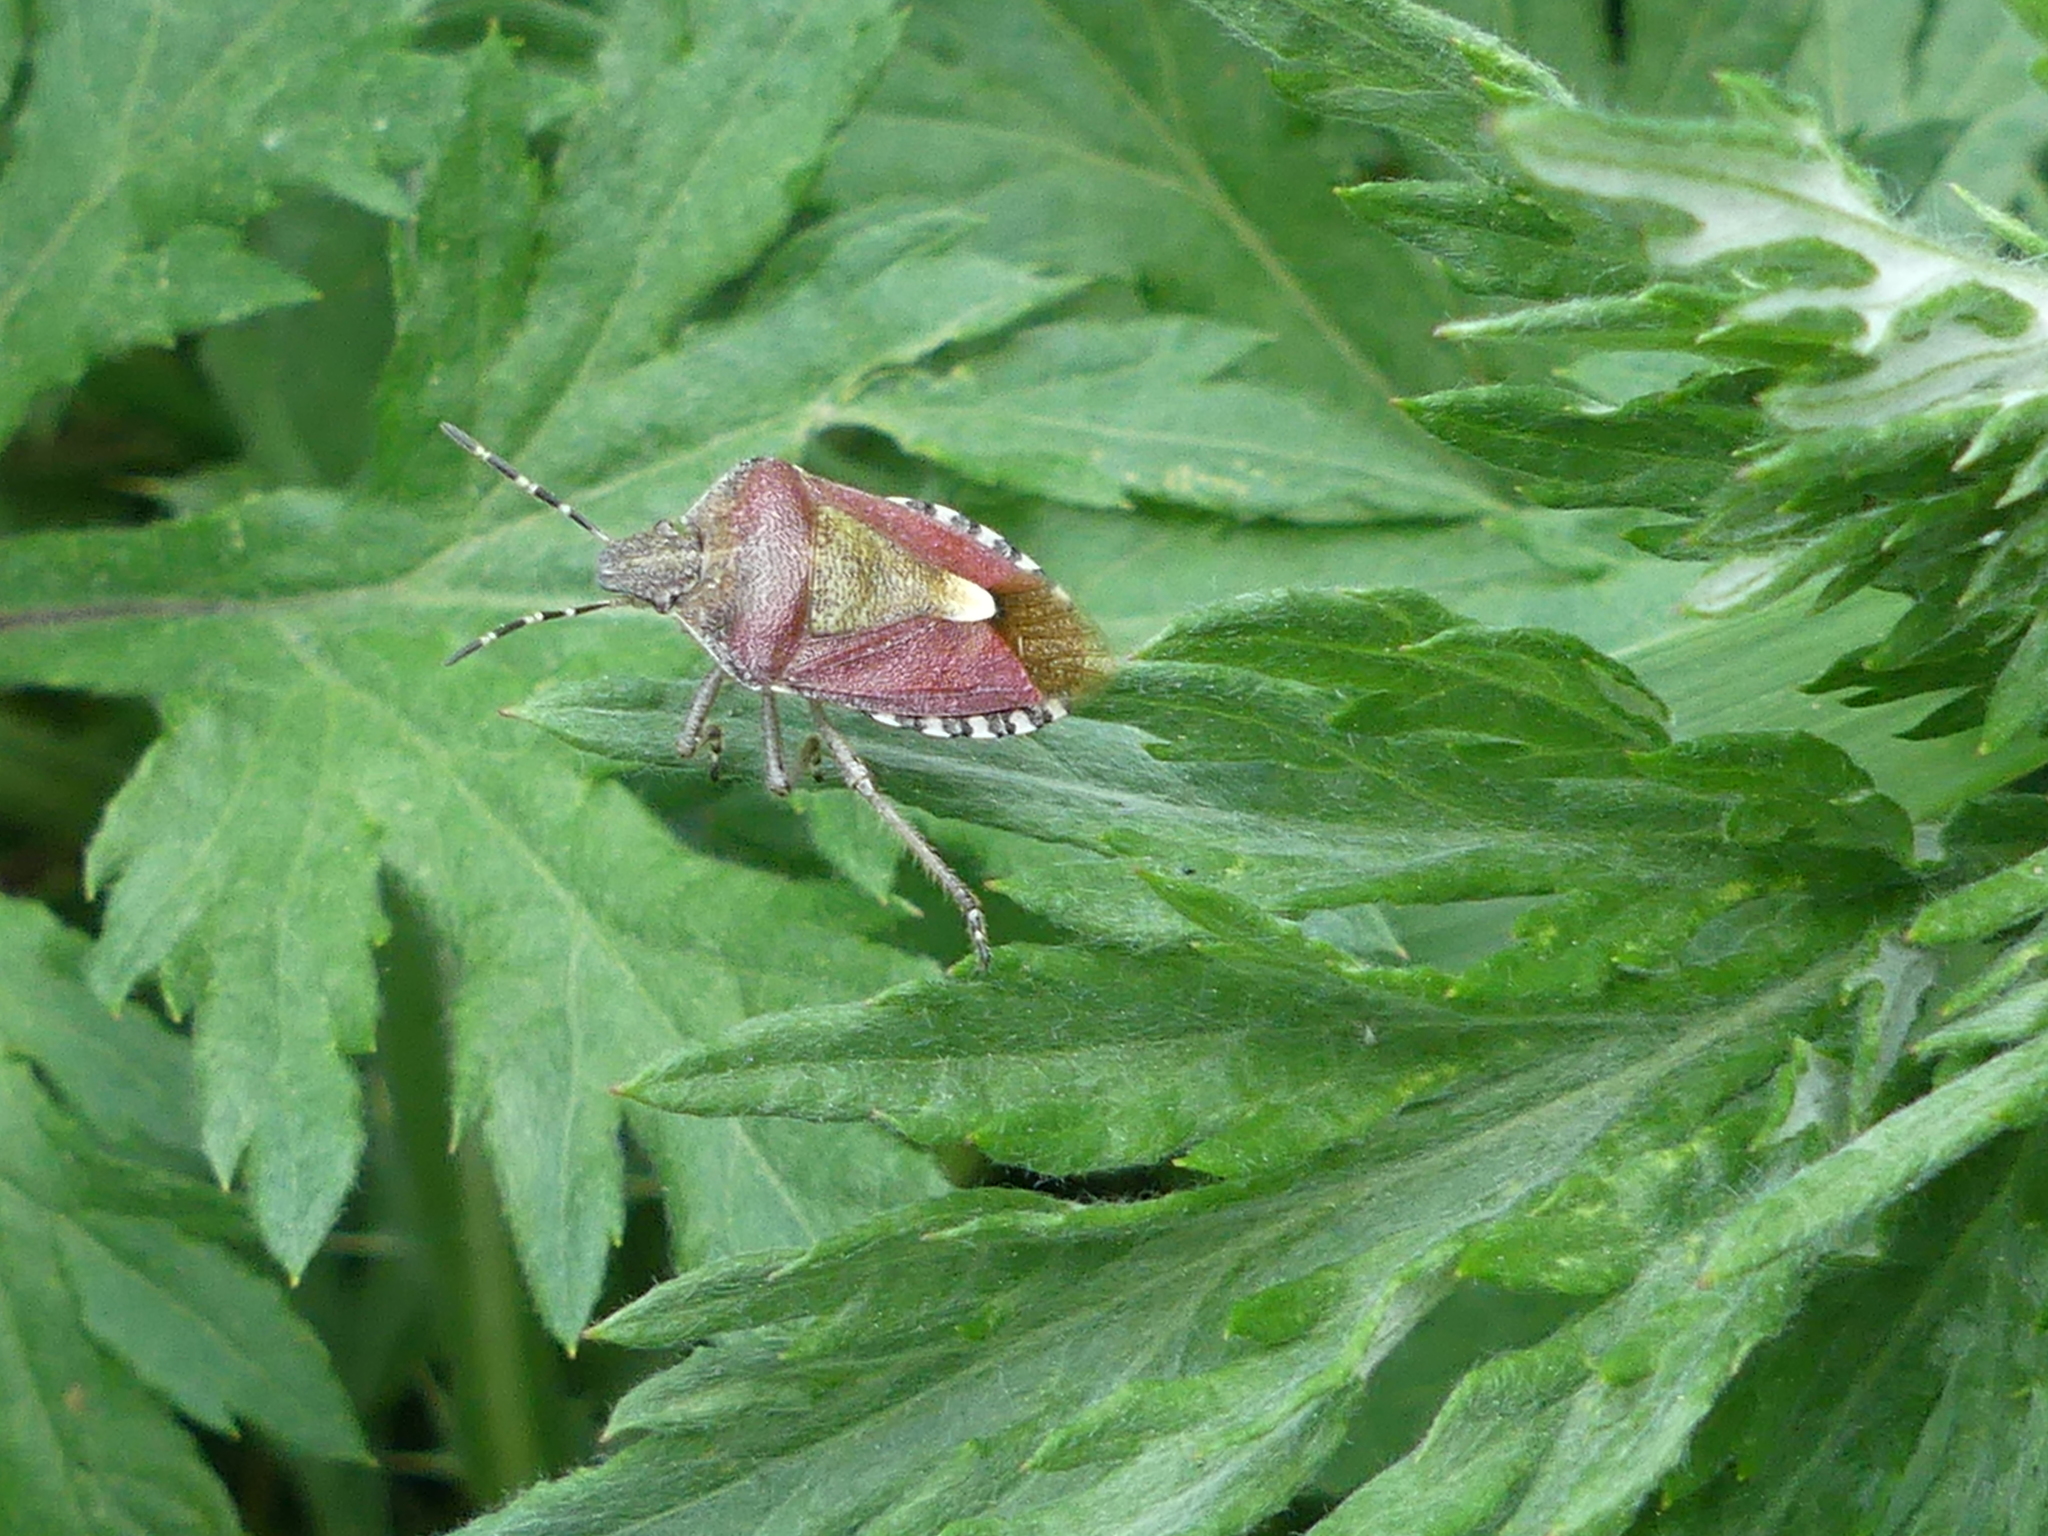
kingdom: Animalia
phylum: Arthropoda
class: Insecta
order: Hemiptera
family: Pentatomidae
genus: Dolycoris
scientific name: Dolycoris baccarum
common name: Sloe bug
